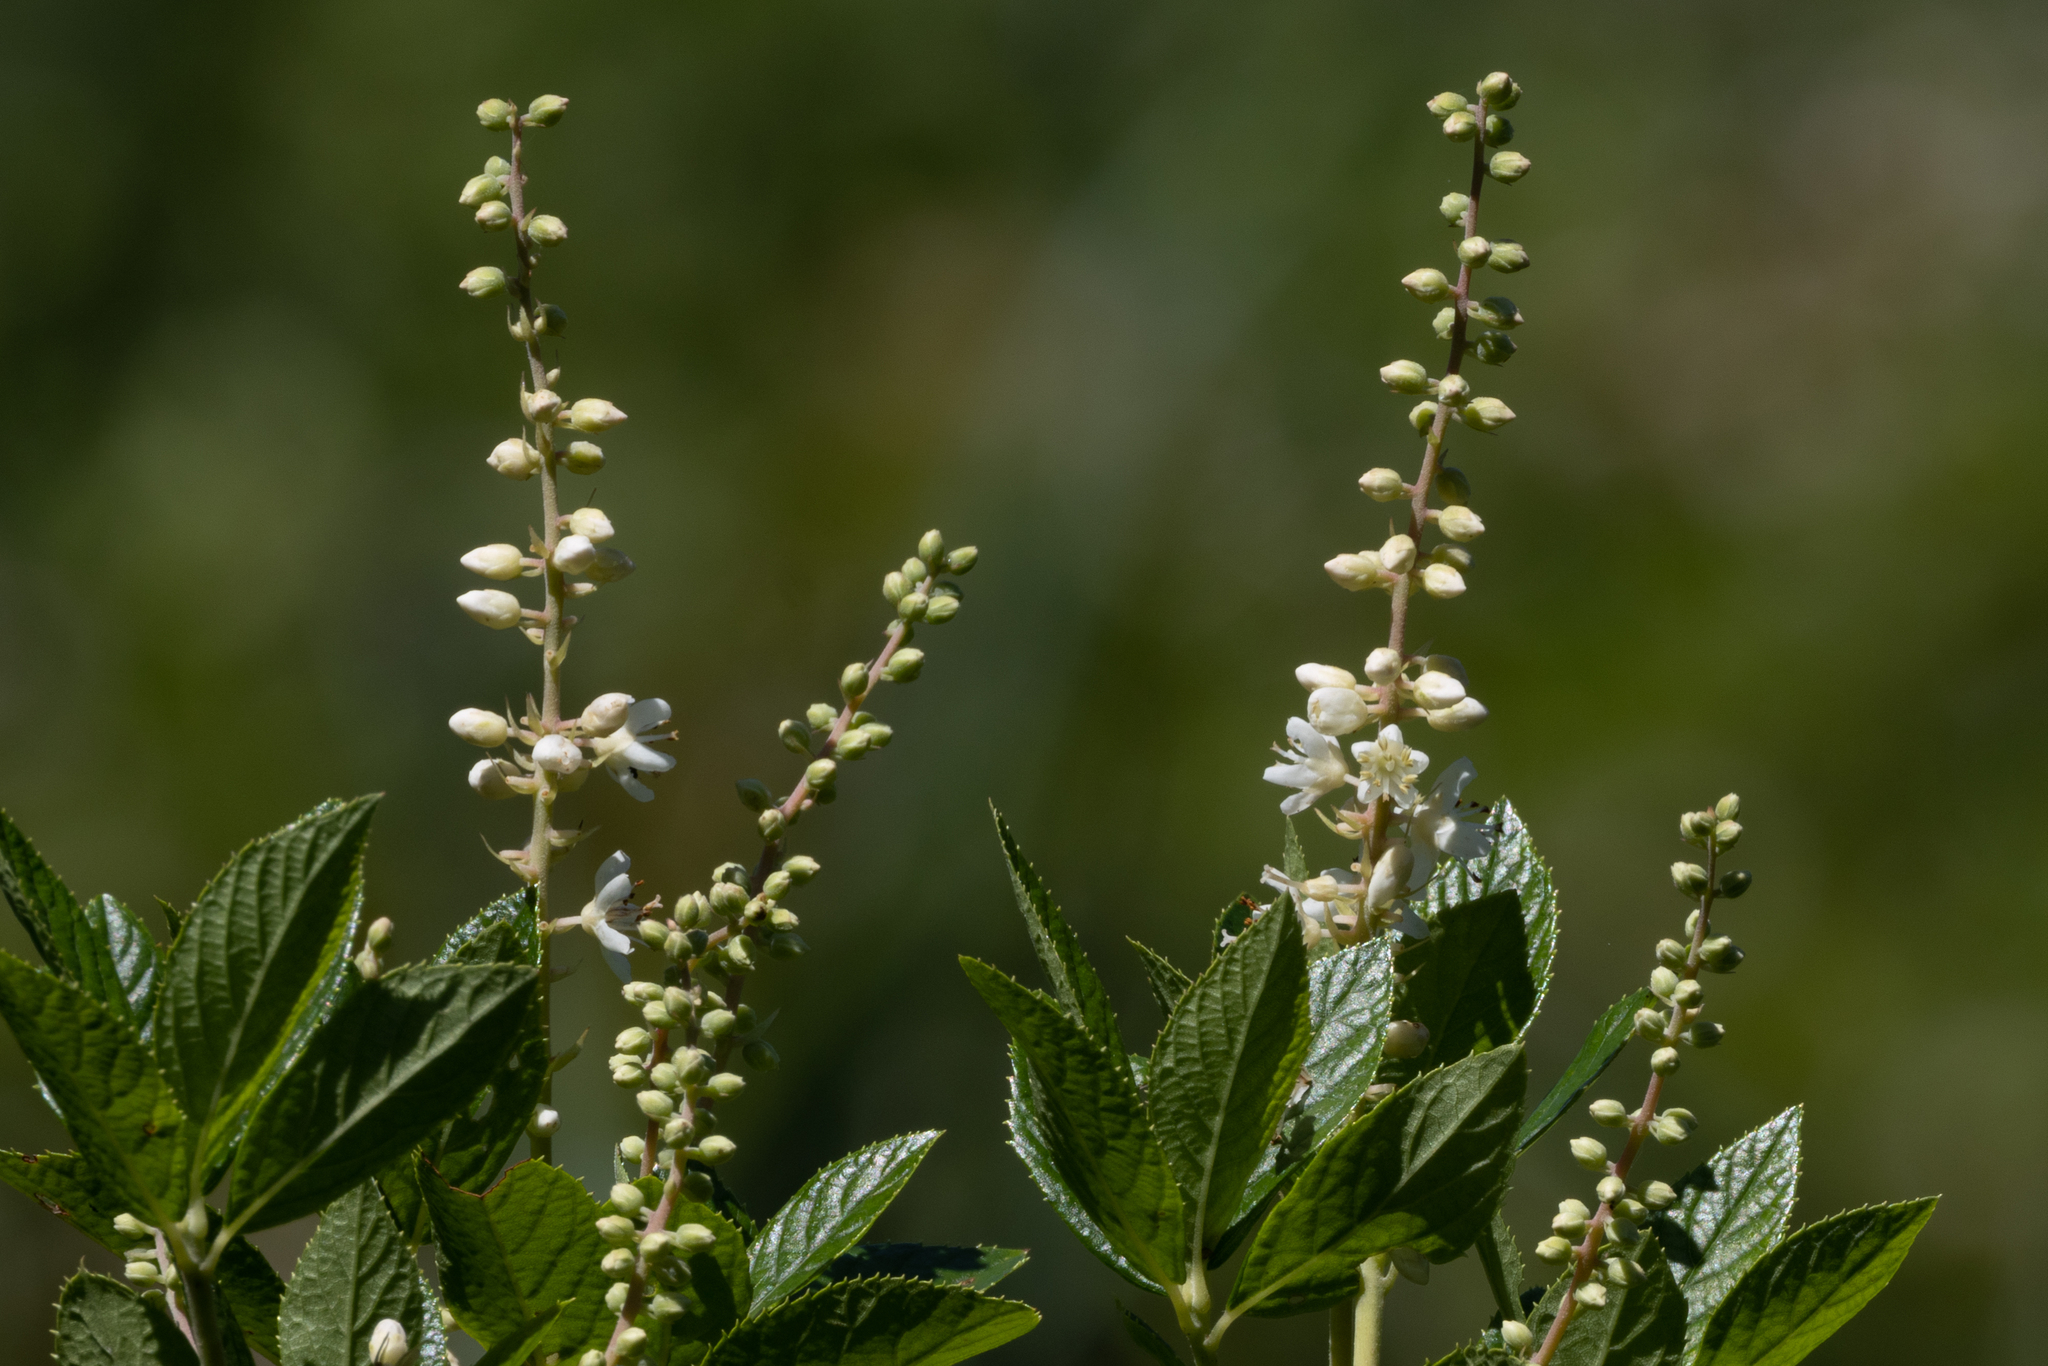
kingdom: Plantae
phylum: Tracheophyta
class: Magnoliopsida
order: Ericales
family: Clethraceae
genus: Clethra
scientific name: Clethra alnifolia
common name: Sweet pepperbush
